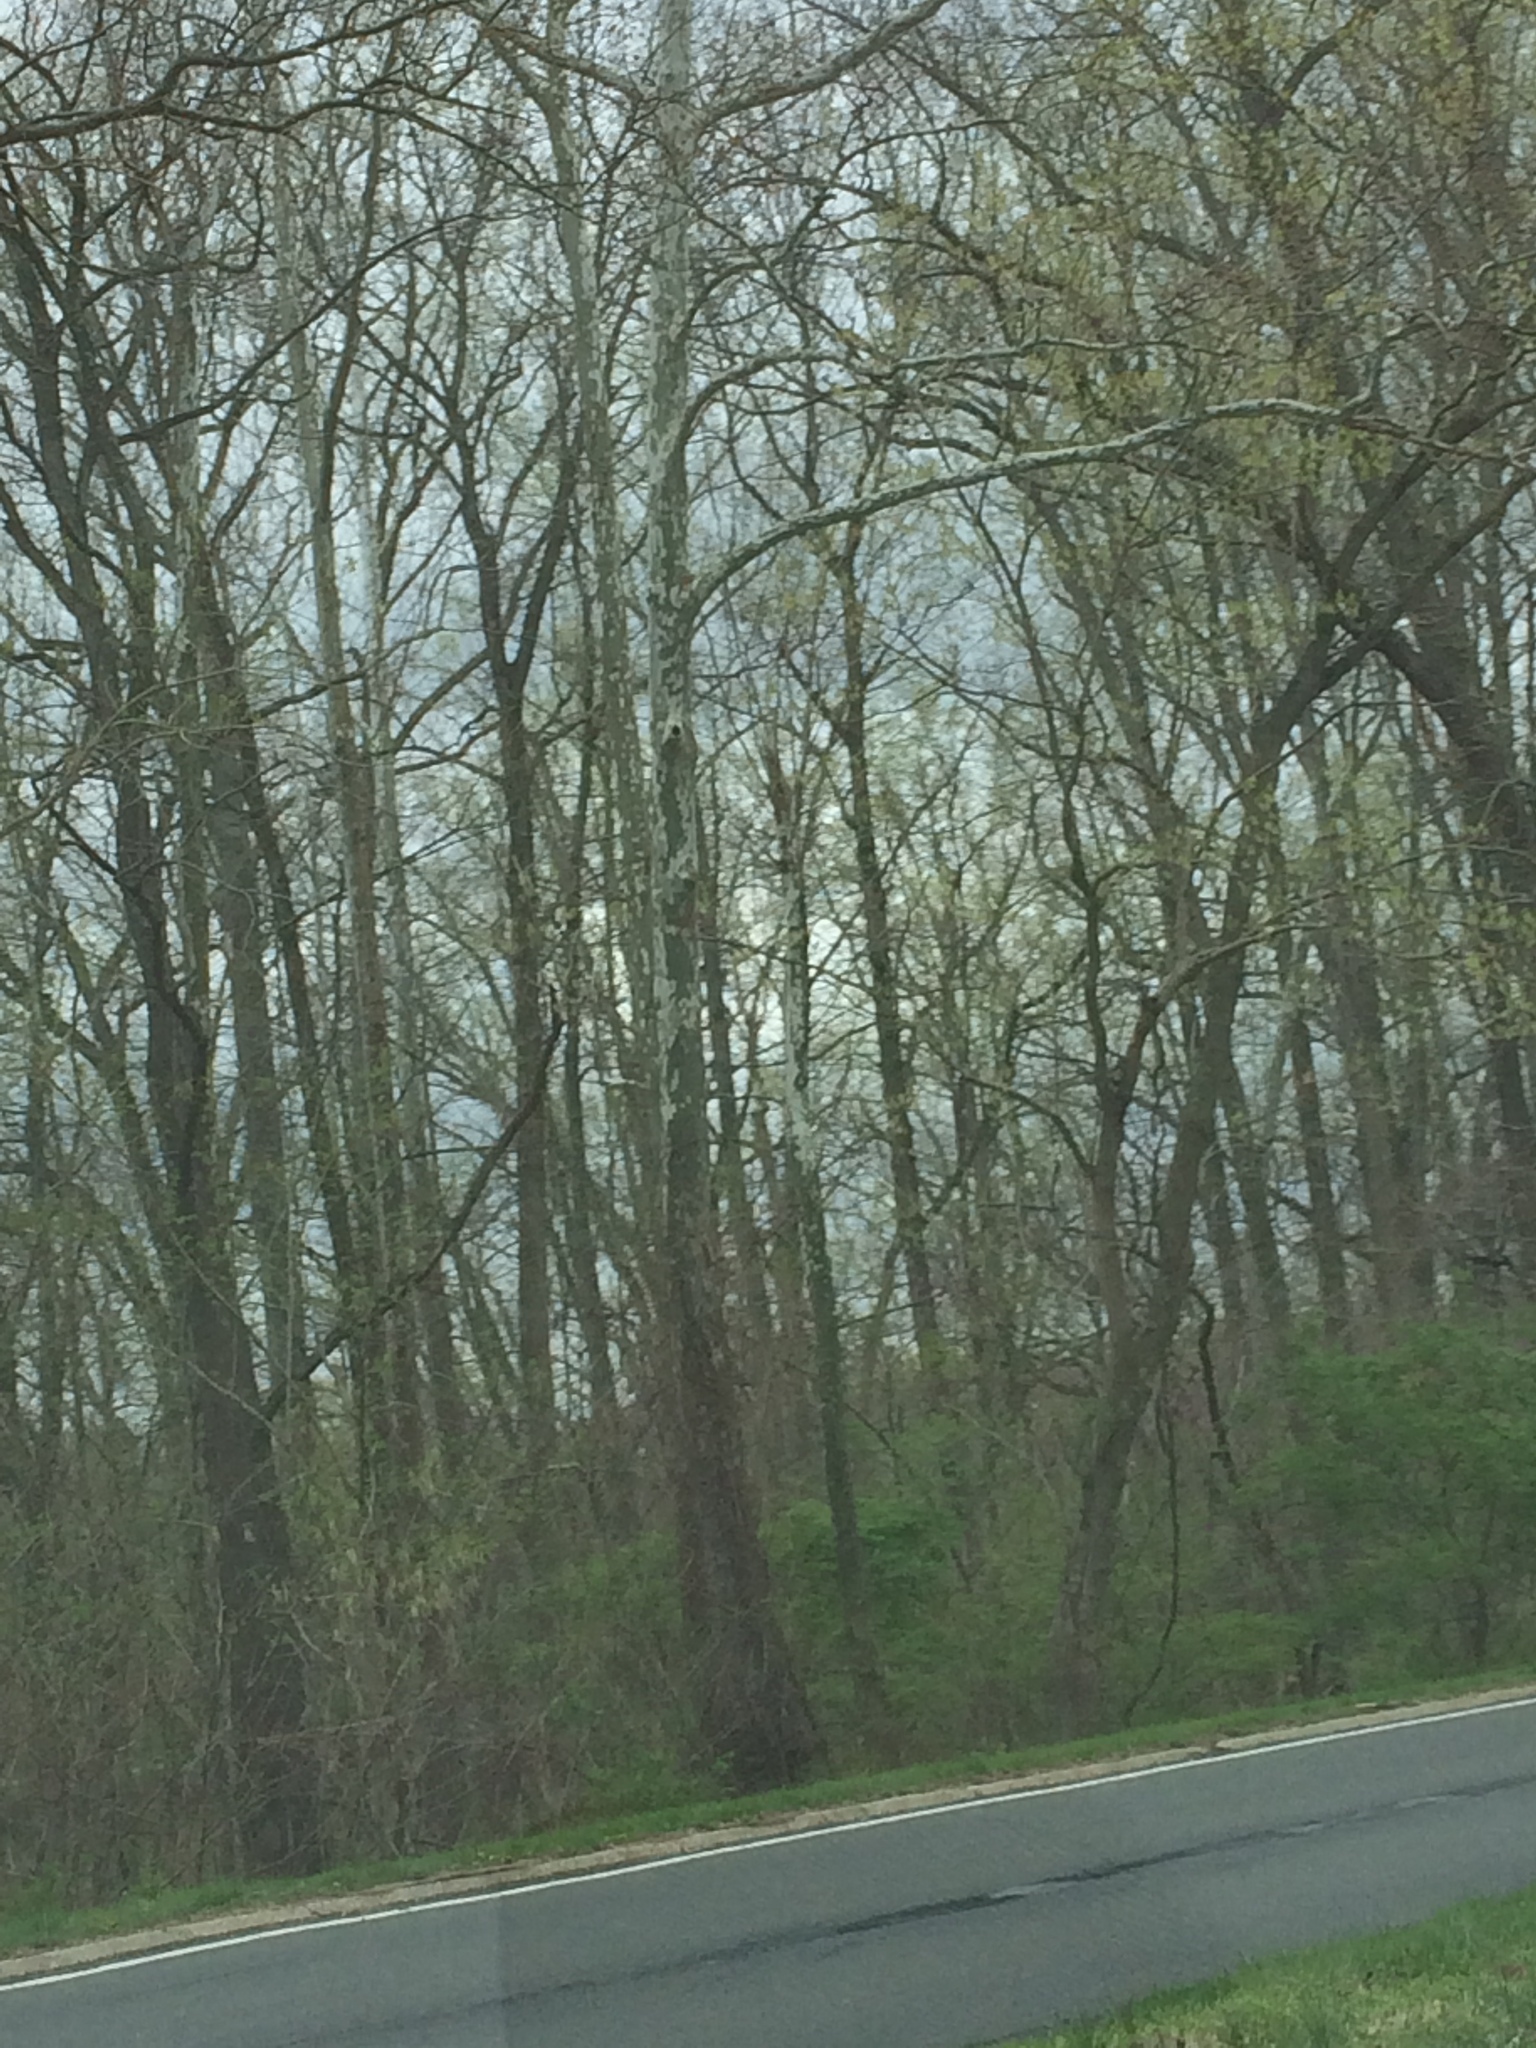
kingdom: Plantae
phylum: Tracheophyta
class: Magnoliopsida
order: Proteales
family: Platanaceae
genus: Platanus
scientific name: Platanus occidentalis
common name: American sycamore
